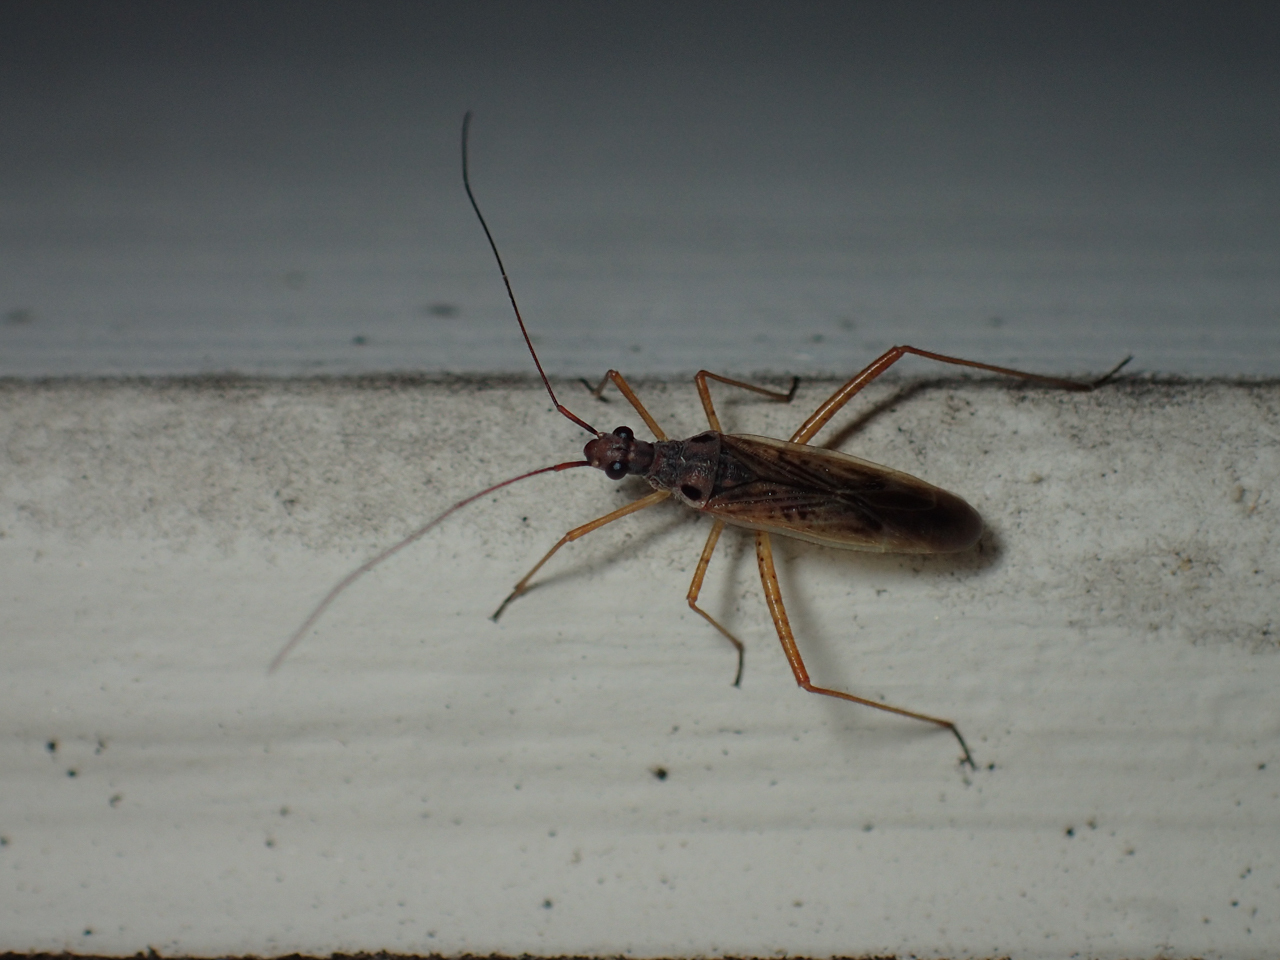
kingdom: Animalia
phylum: Arthropoda
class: Insecta
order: Hemiptera
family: Miridae
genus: Collaria
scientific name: Collaria oculata
